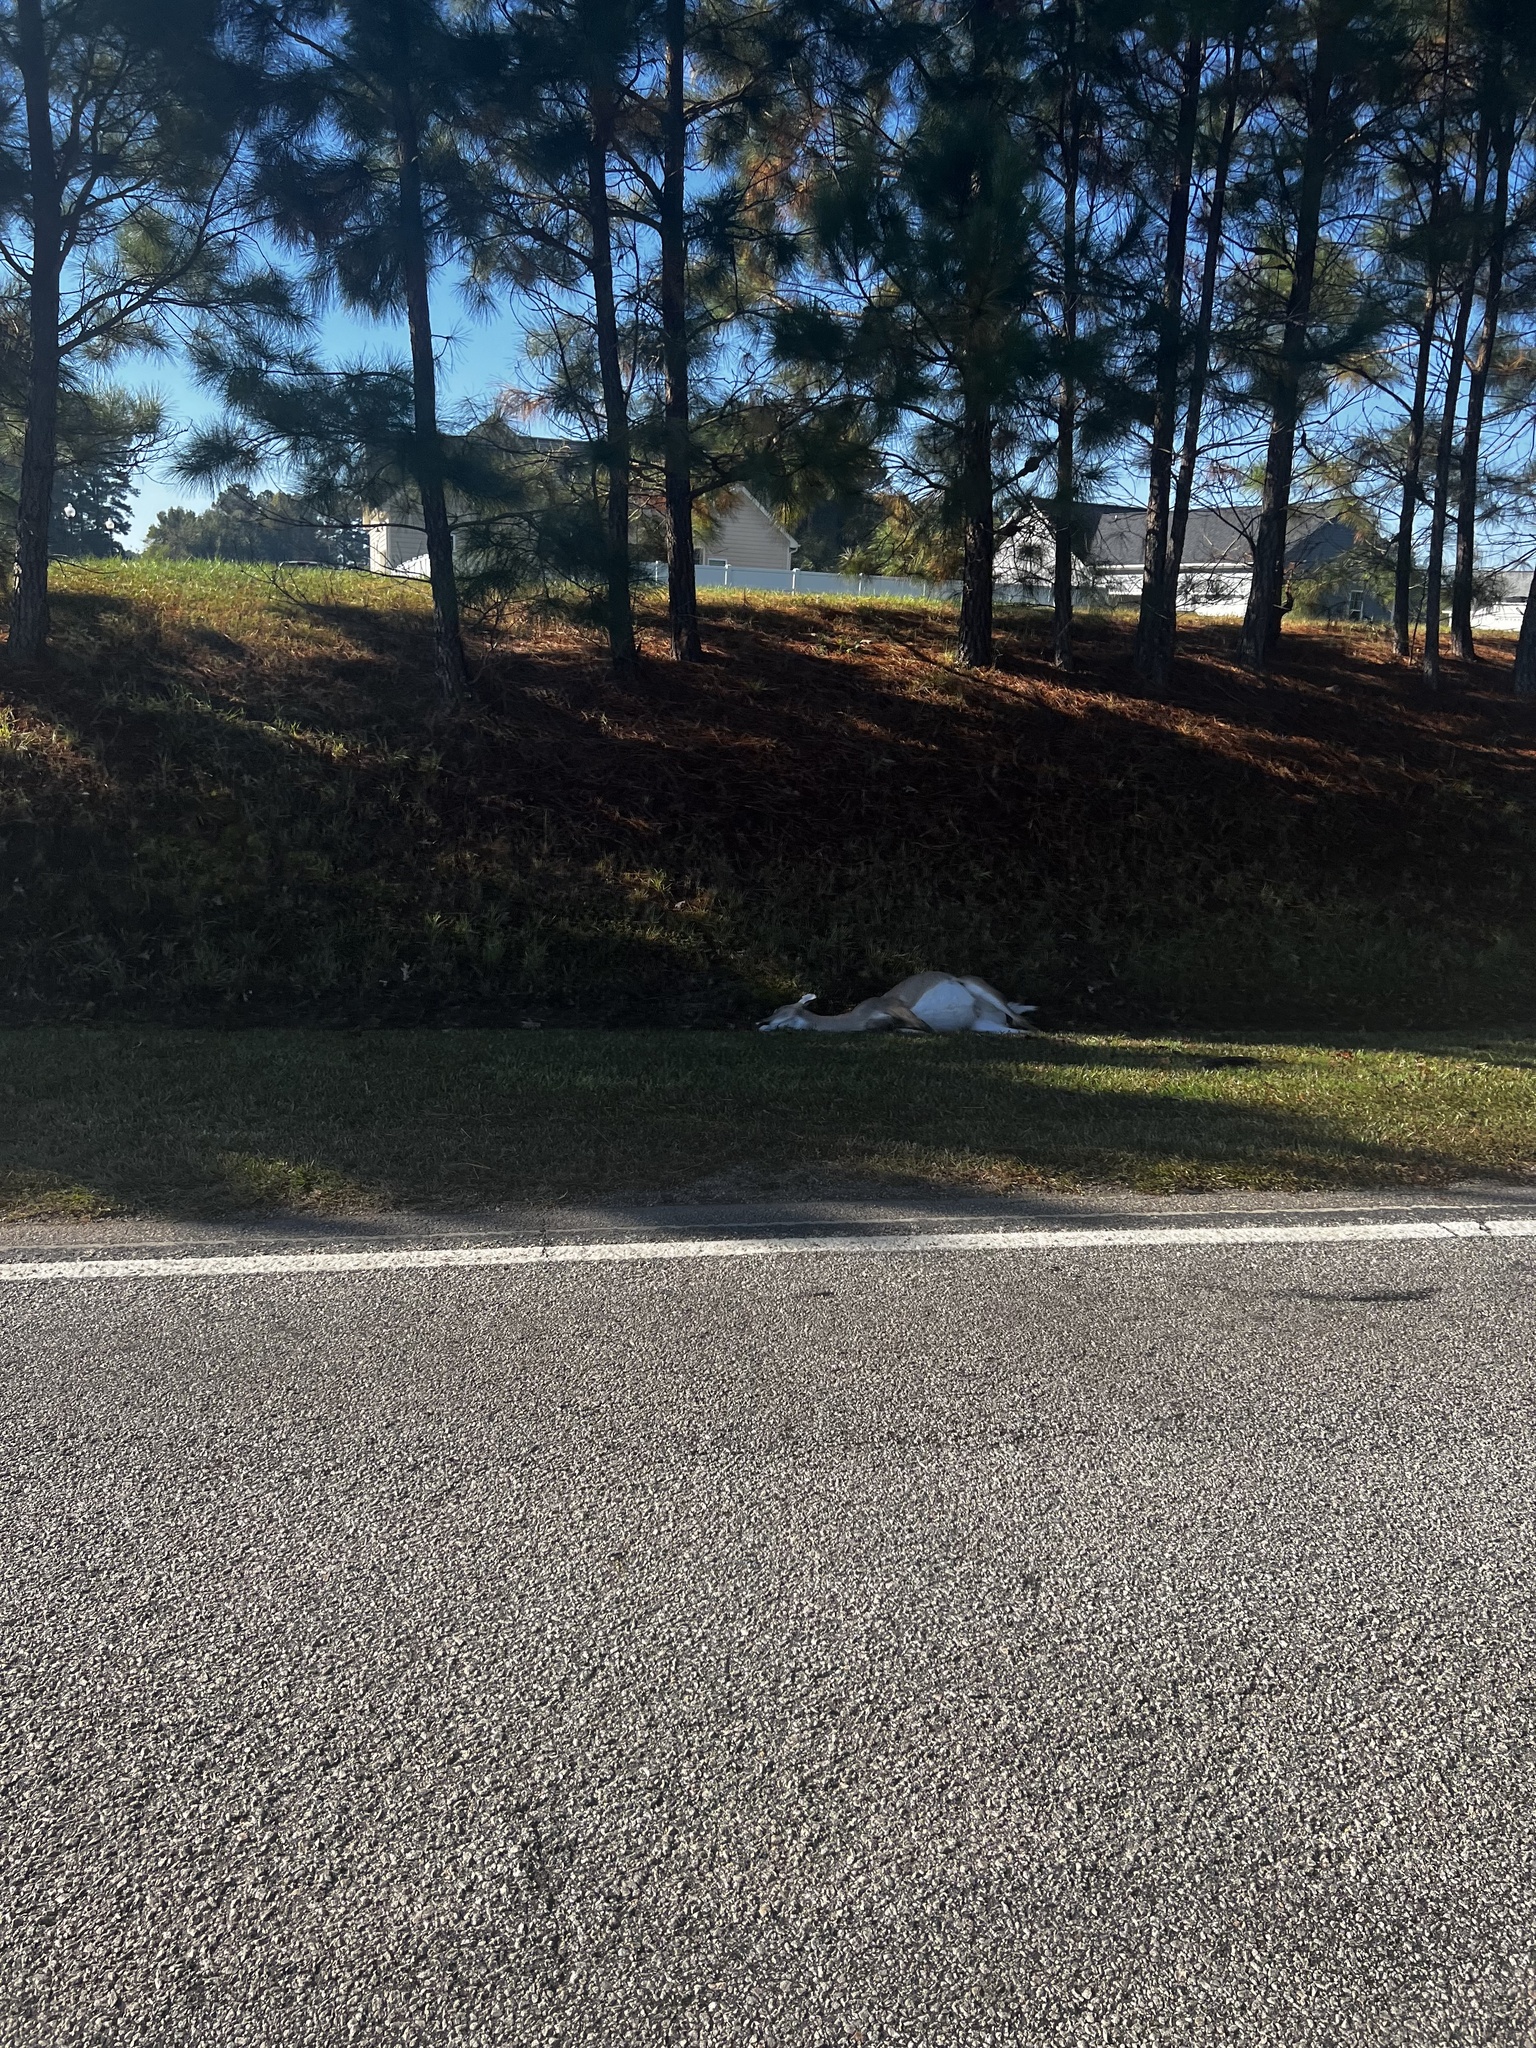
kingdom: Animalia
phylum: Chordata
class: Mammalia
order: Artiodactyla
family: Cervidae
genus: Odocoileus
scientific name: Odocoileus virginianus
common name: White-tailed deer
